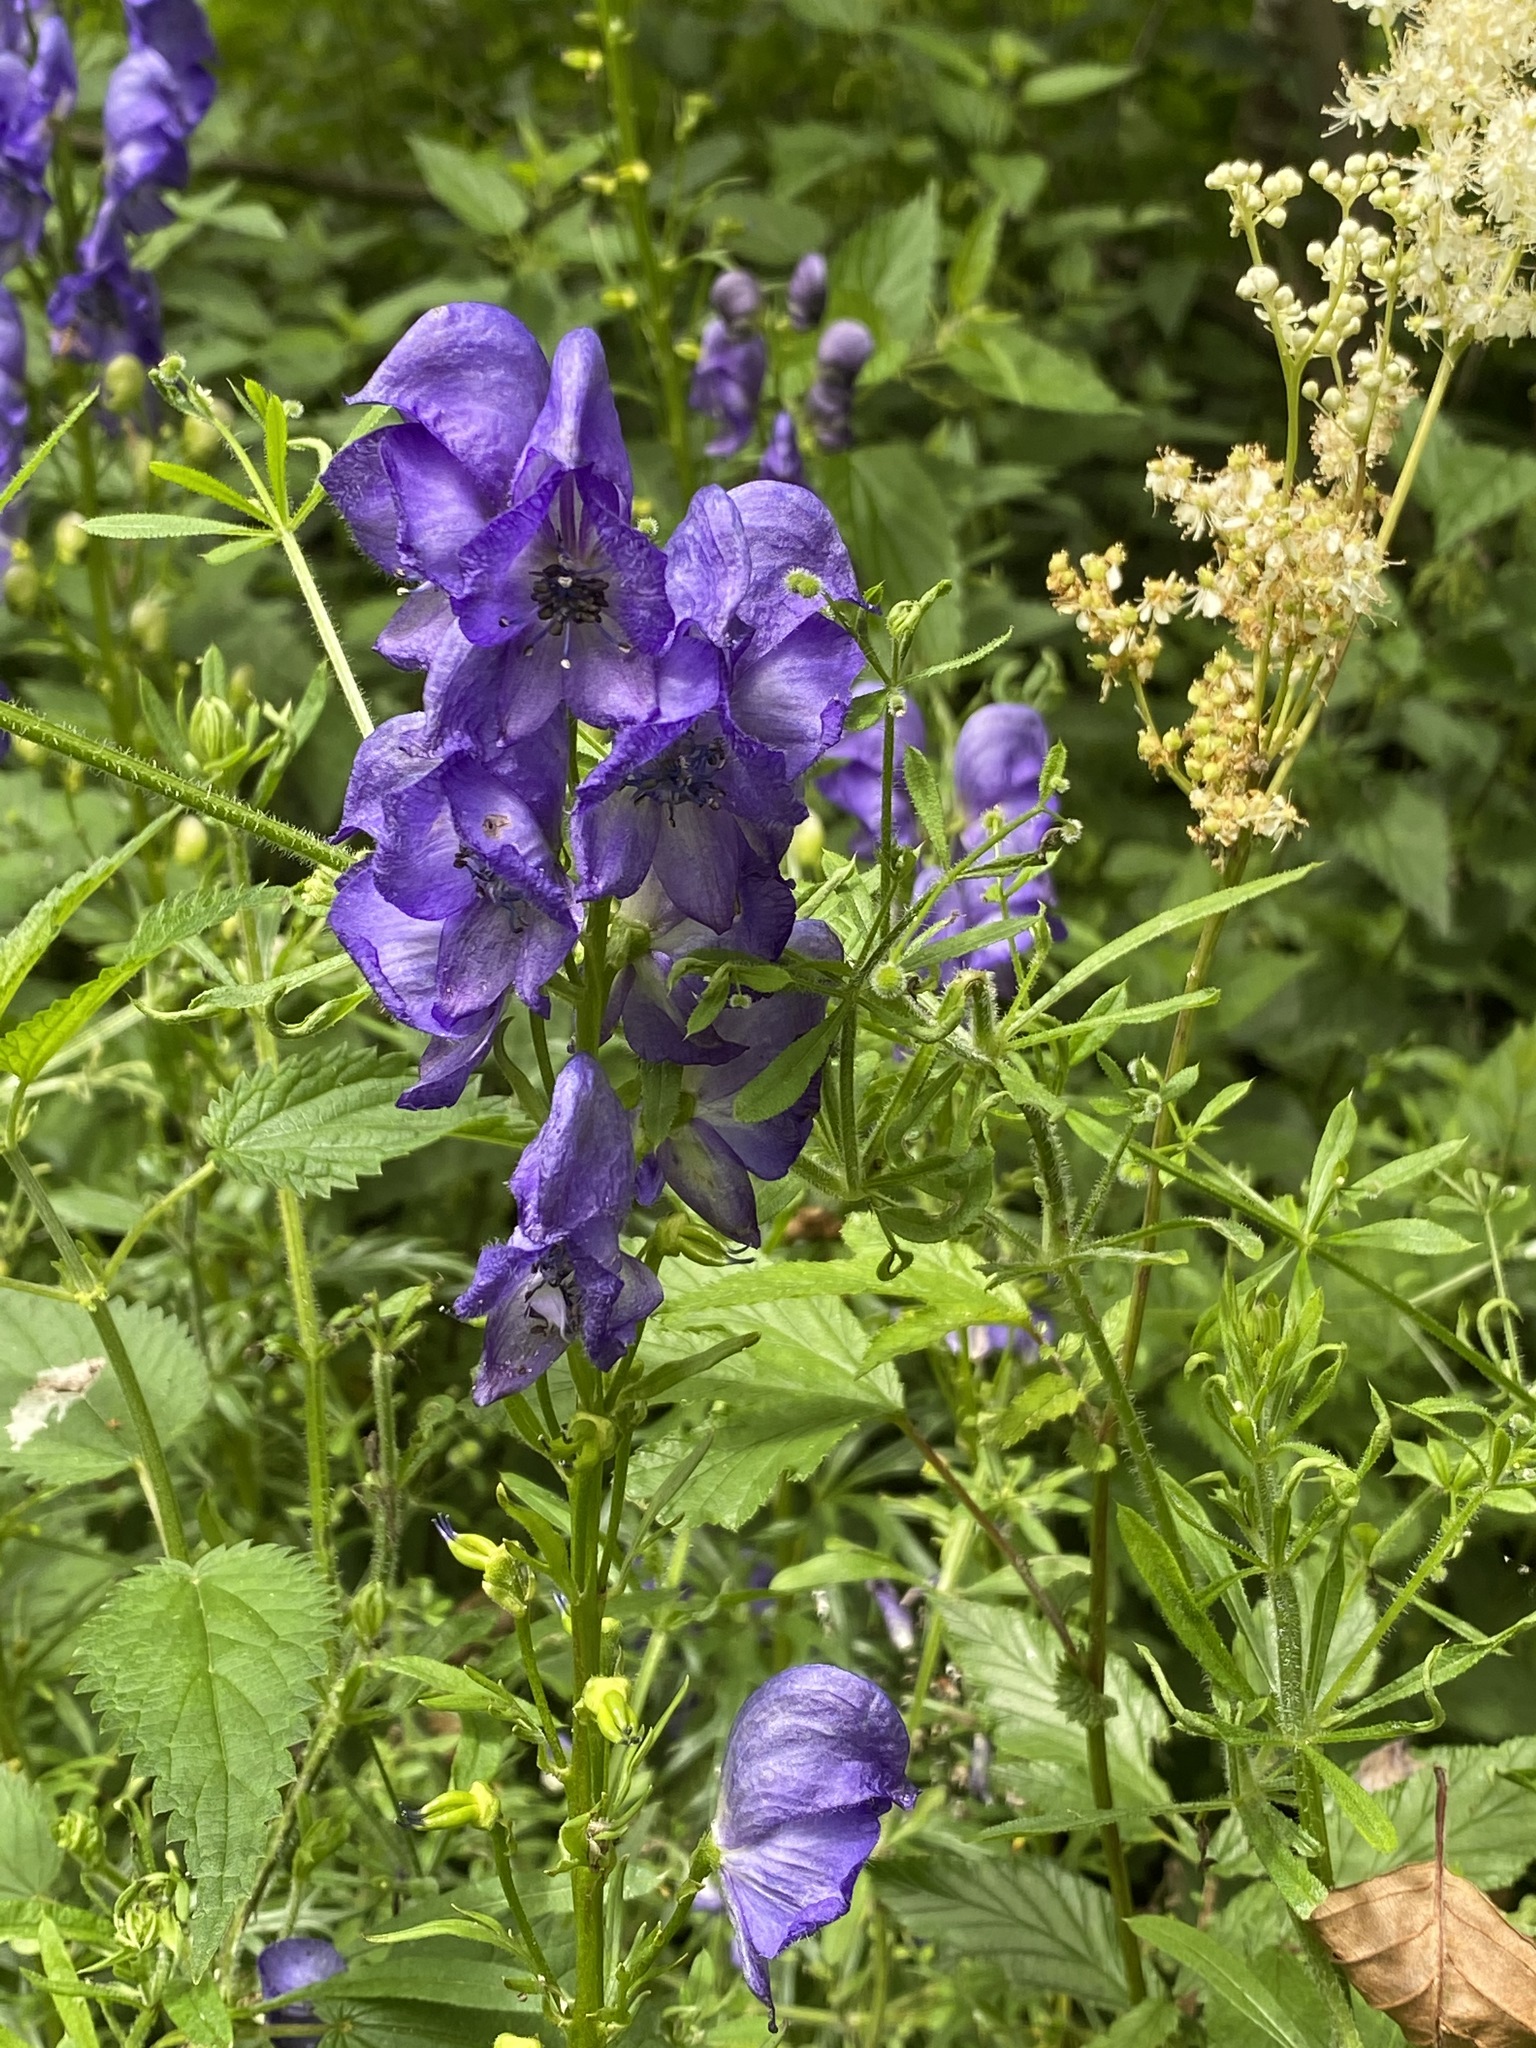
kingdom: Plantae
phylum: Tracheophyta
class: Magnoliopsida
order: Ranunculales
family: Ranunculaceae
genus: Aconitum
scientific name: Aconitum napellus
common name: Garden monkshood
